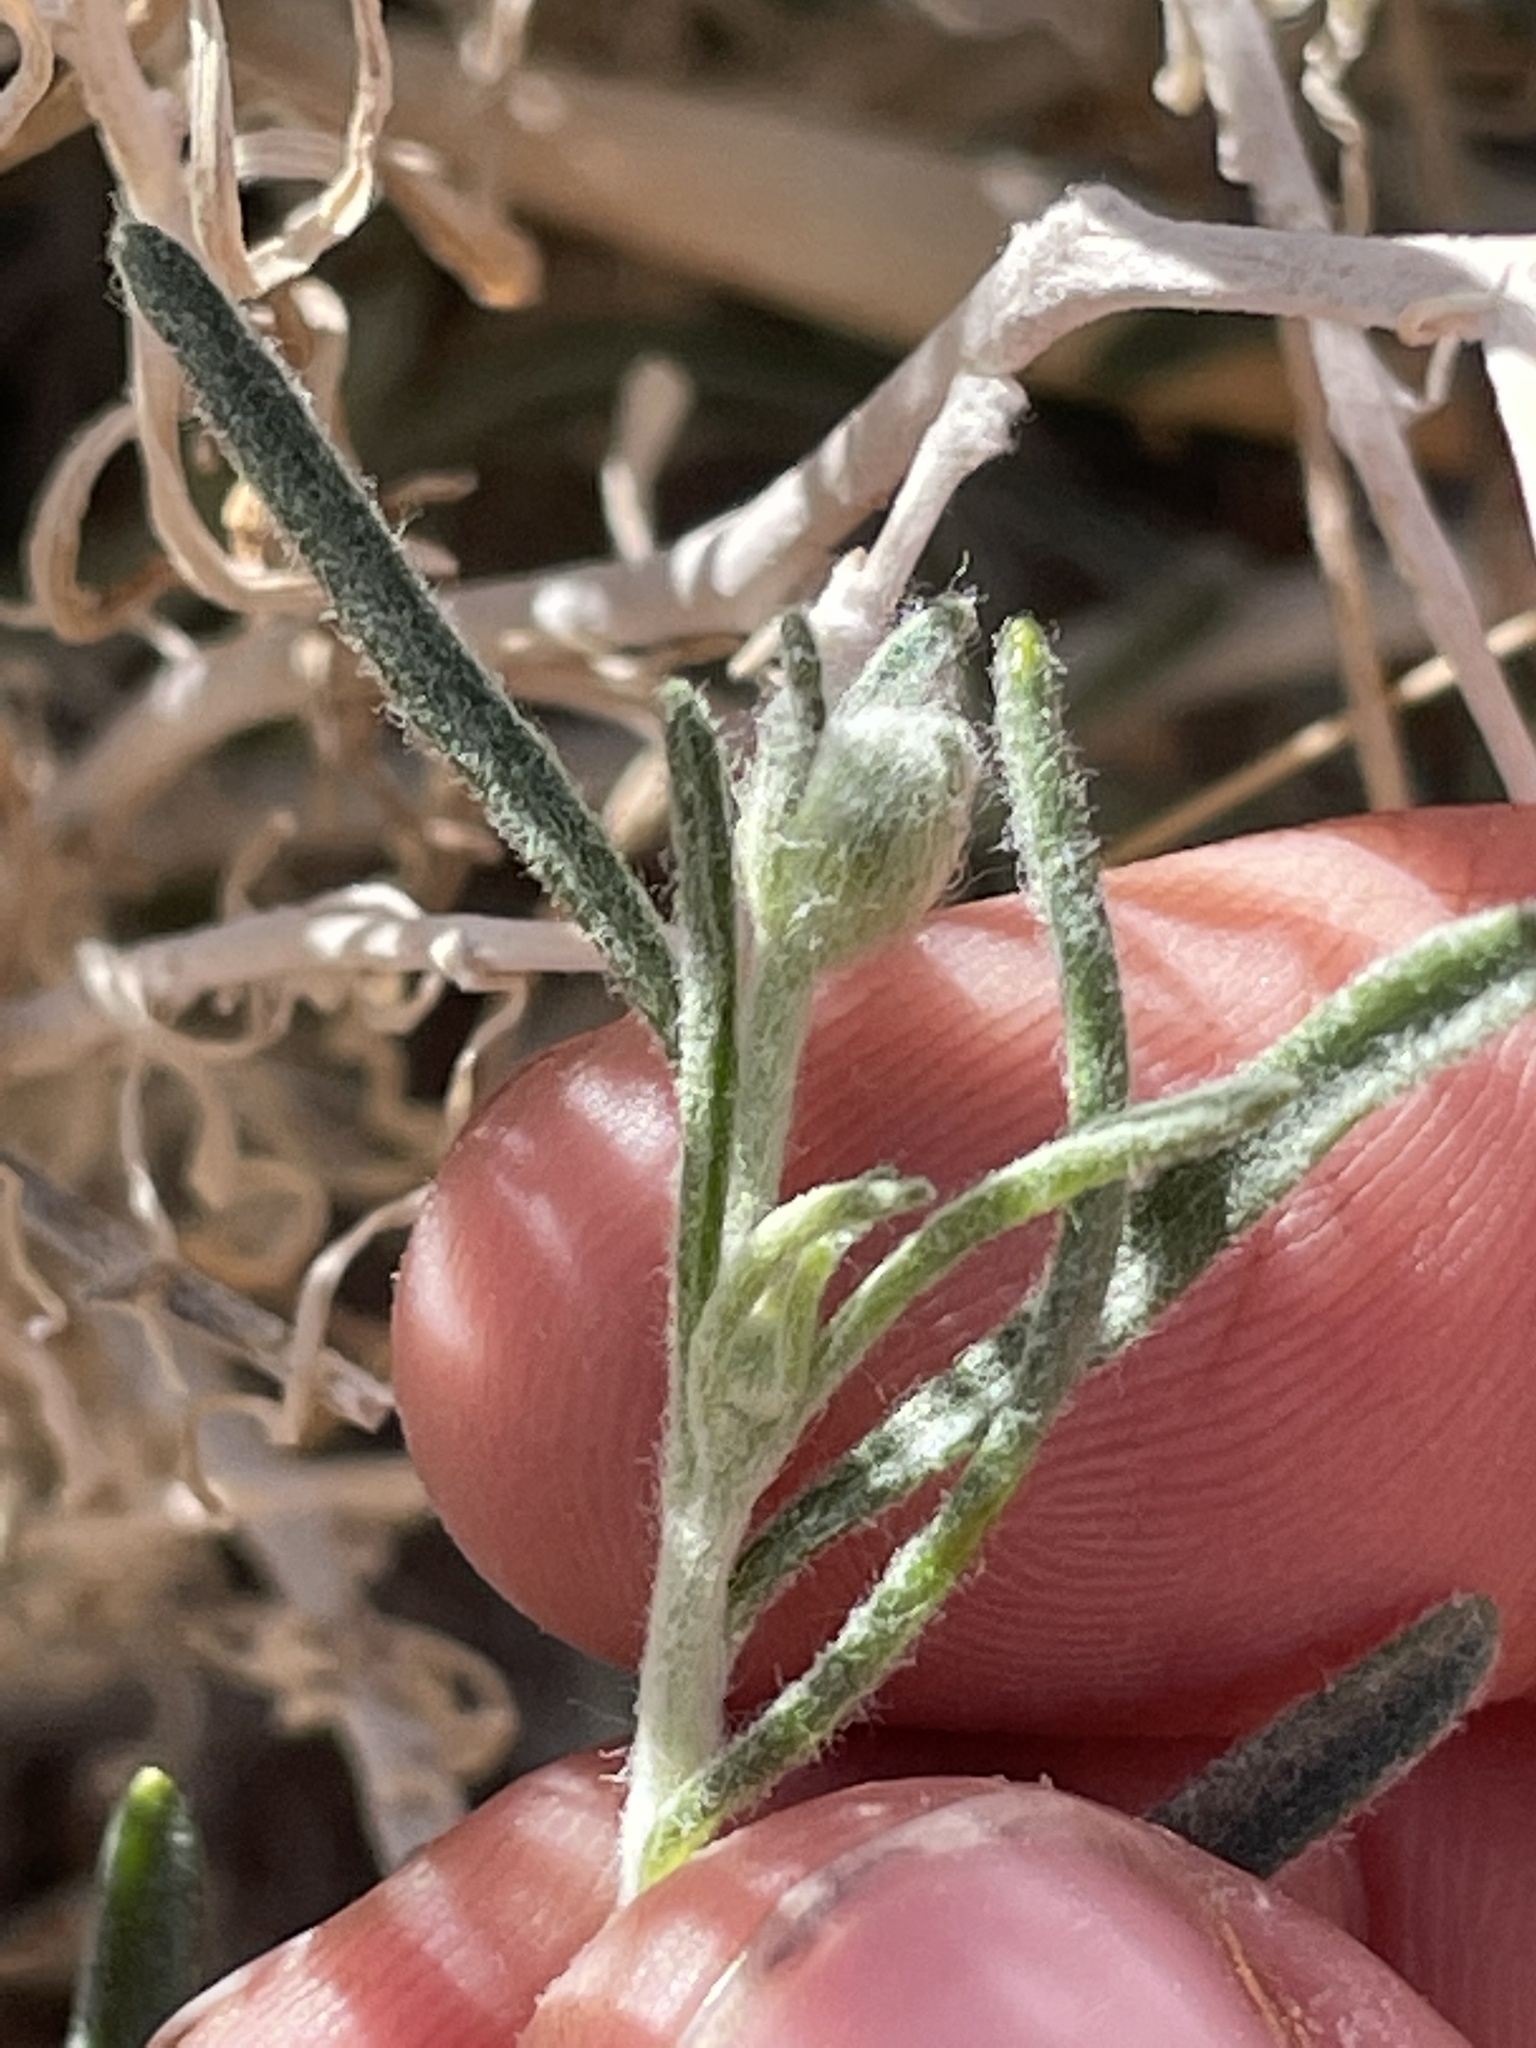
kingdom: Plantae
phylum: Tracheophyta
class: Magnoliopsida
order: Asterales
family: Asteraceae
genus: Psilostrophe
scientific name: Psilostrophe cooperi
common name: White-stem paper-flower
